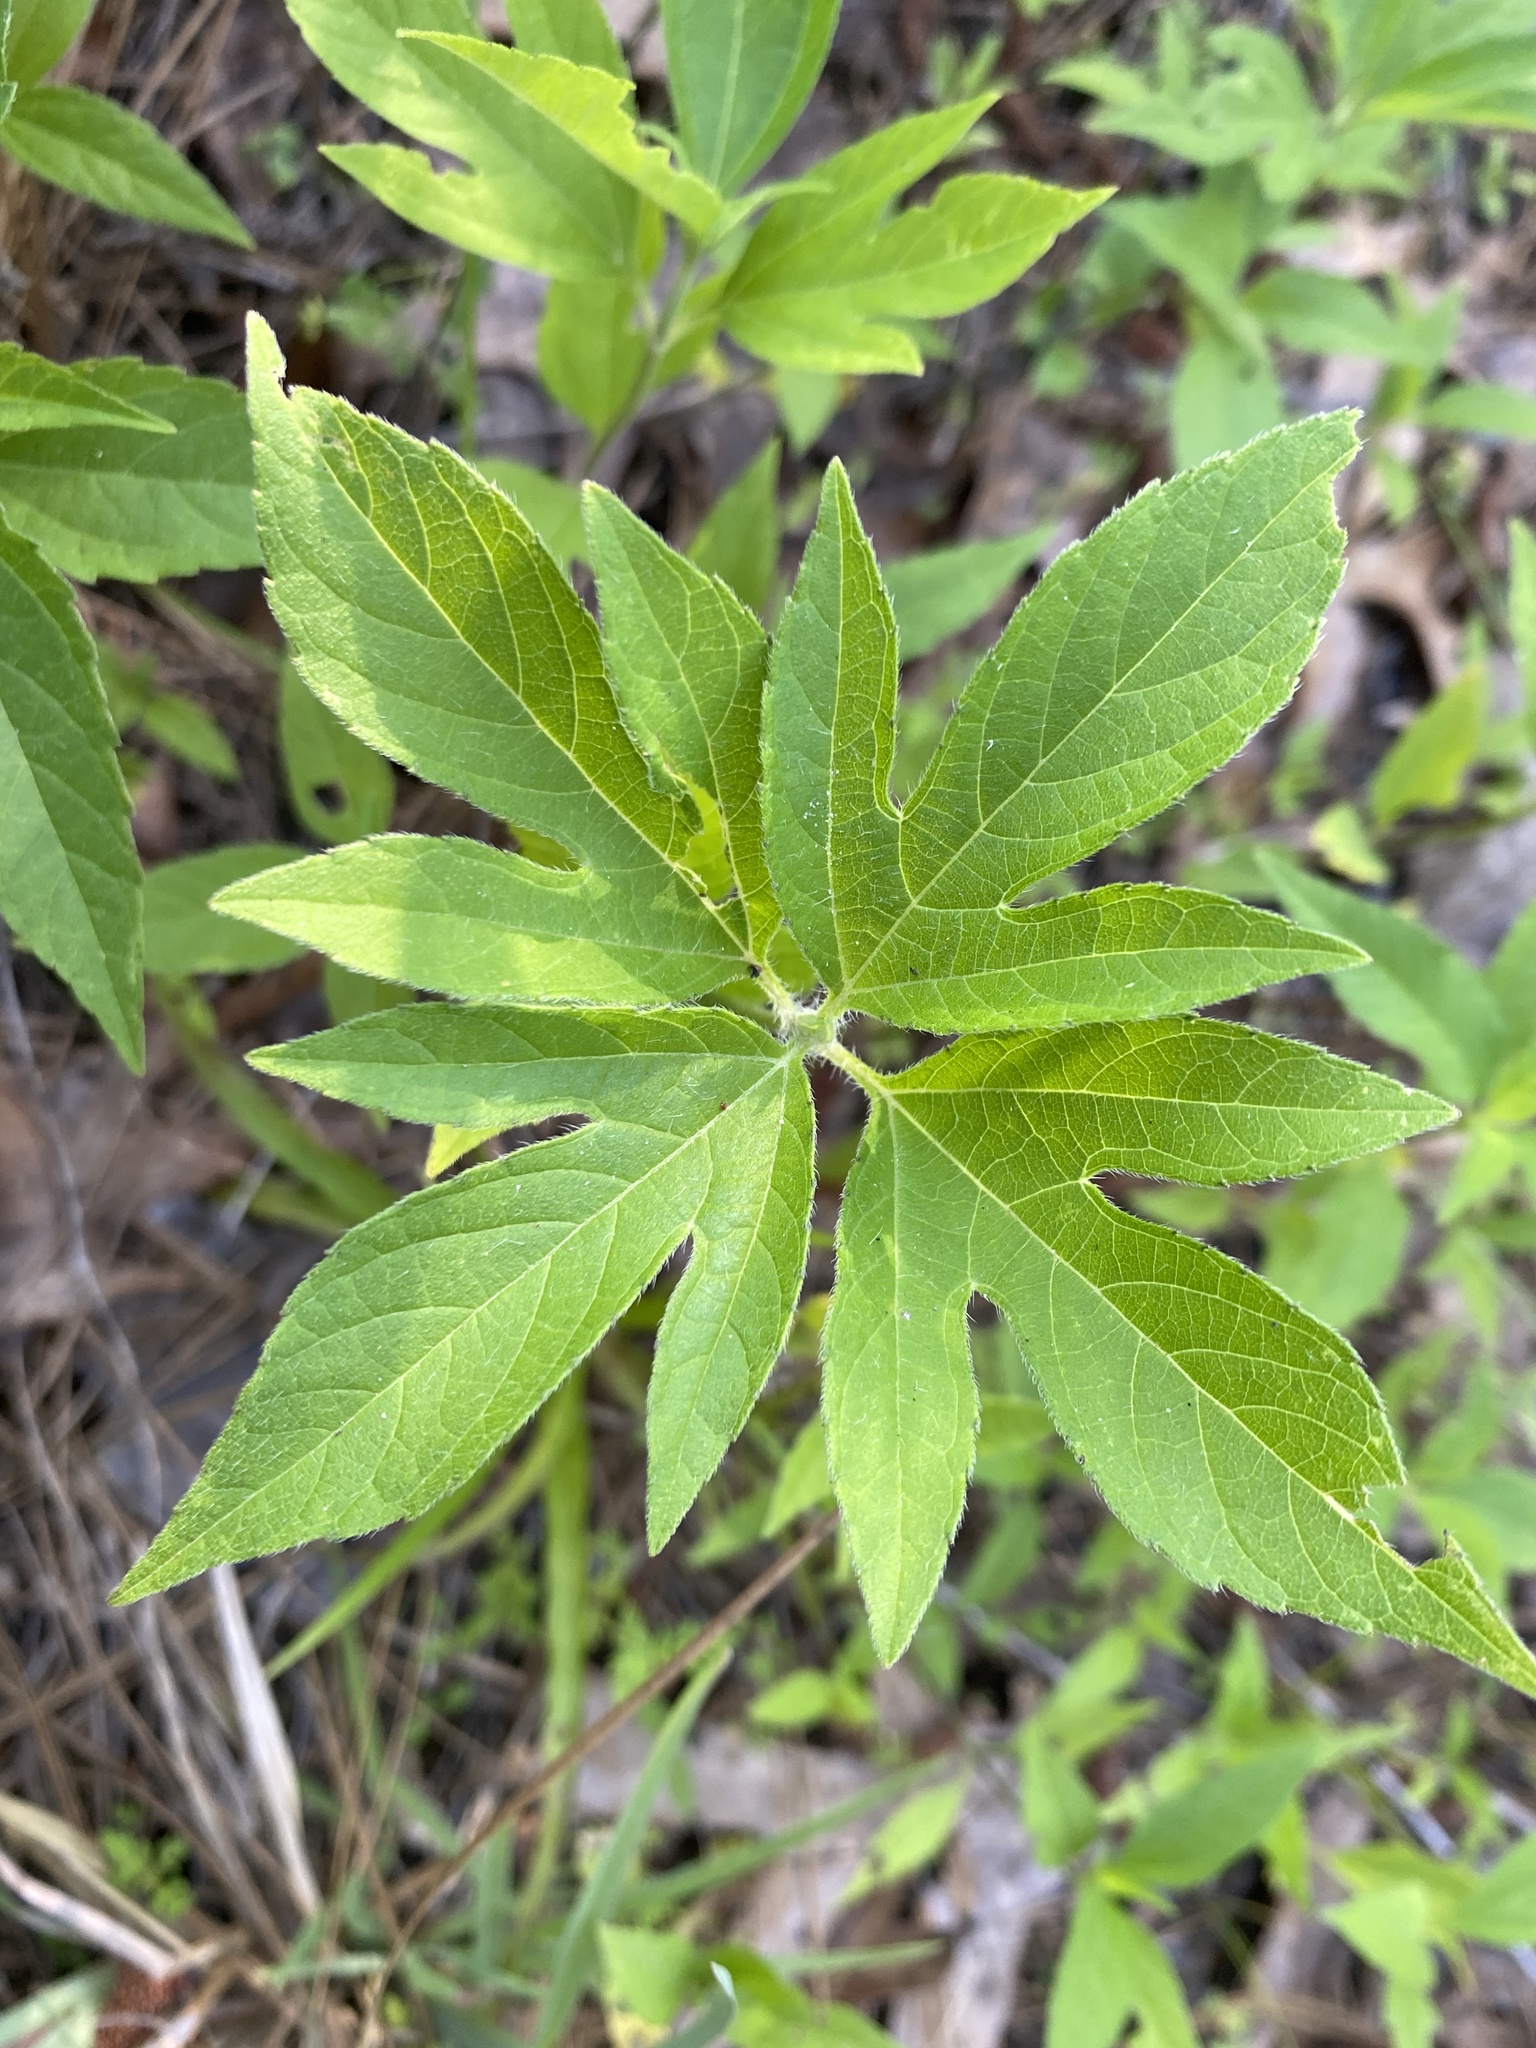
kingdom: Plantae
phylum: Tracheophyta
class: Magnoliopsida
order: Asterales
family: Asteraceae
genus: Ambrosia
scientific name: Ambrosia trifida
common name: Giant ragweed
